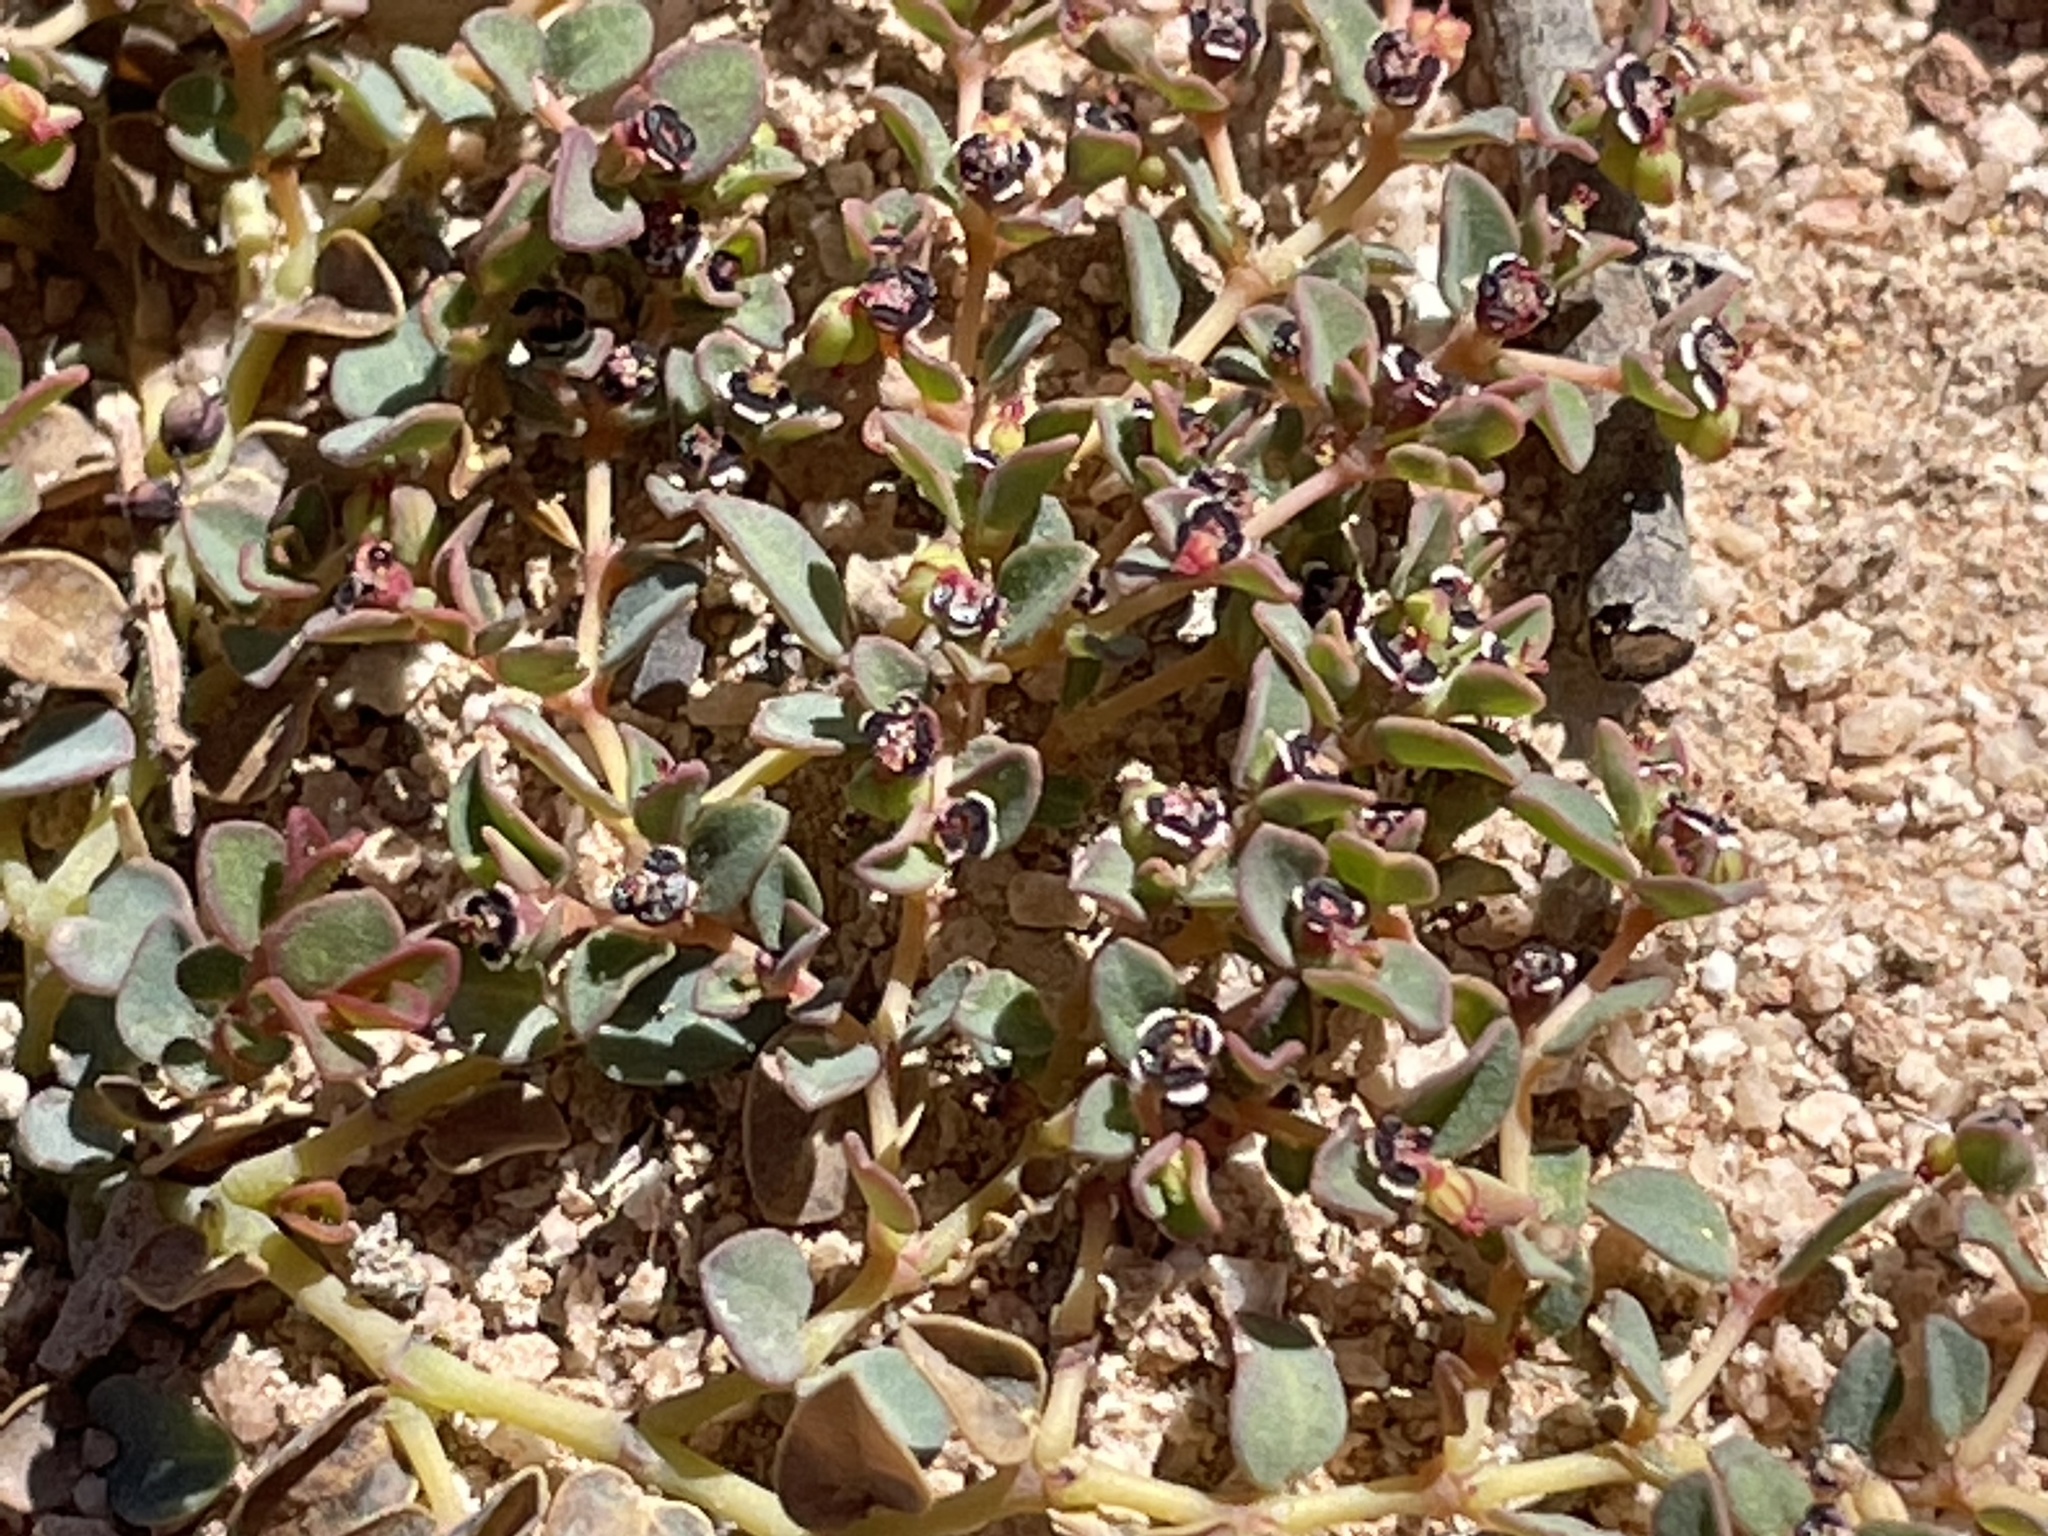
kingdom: Plantae
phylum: Tracheophyta
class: Magnoliopsida
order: Malpighiales
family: Euphorbiaceae
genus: Euphorbia
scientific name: Euphorbia polycarpa
